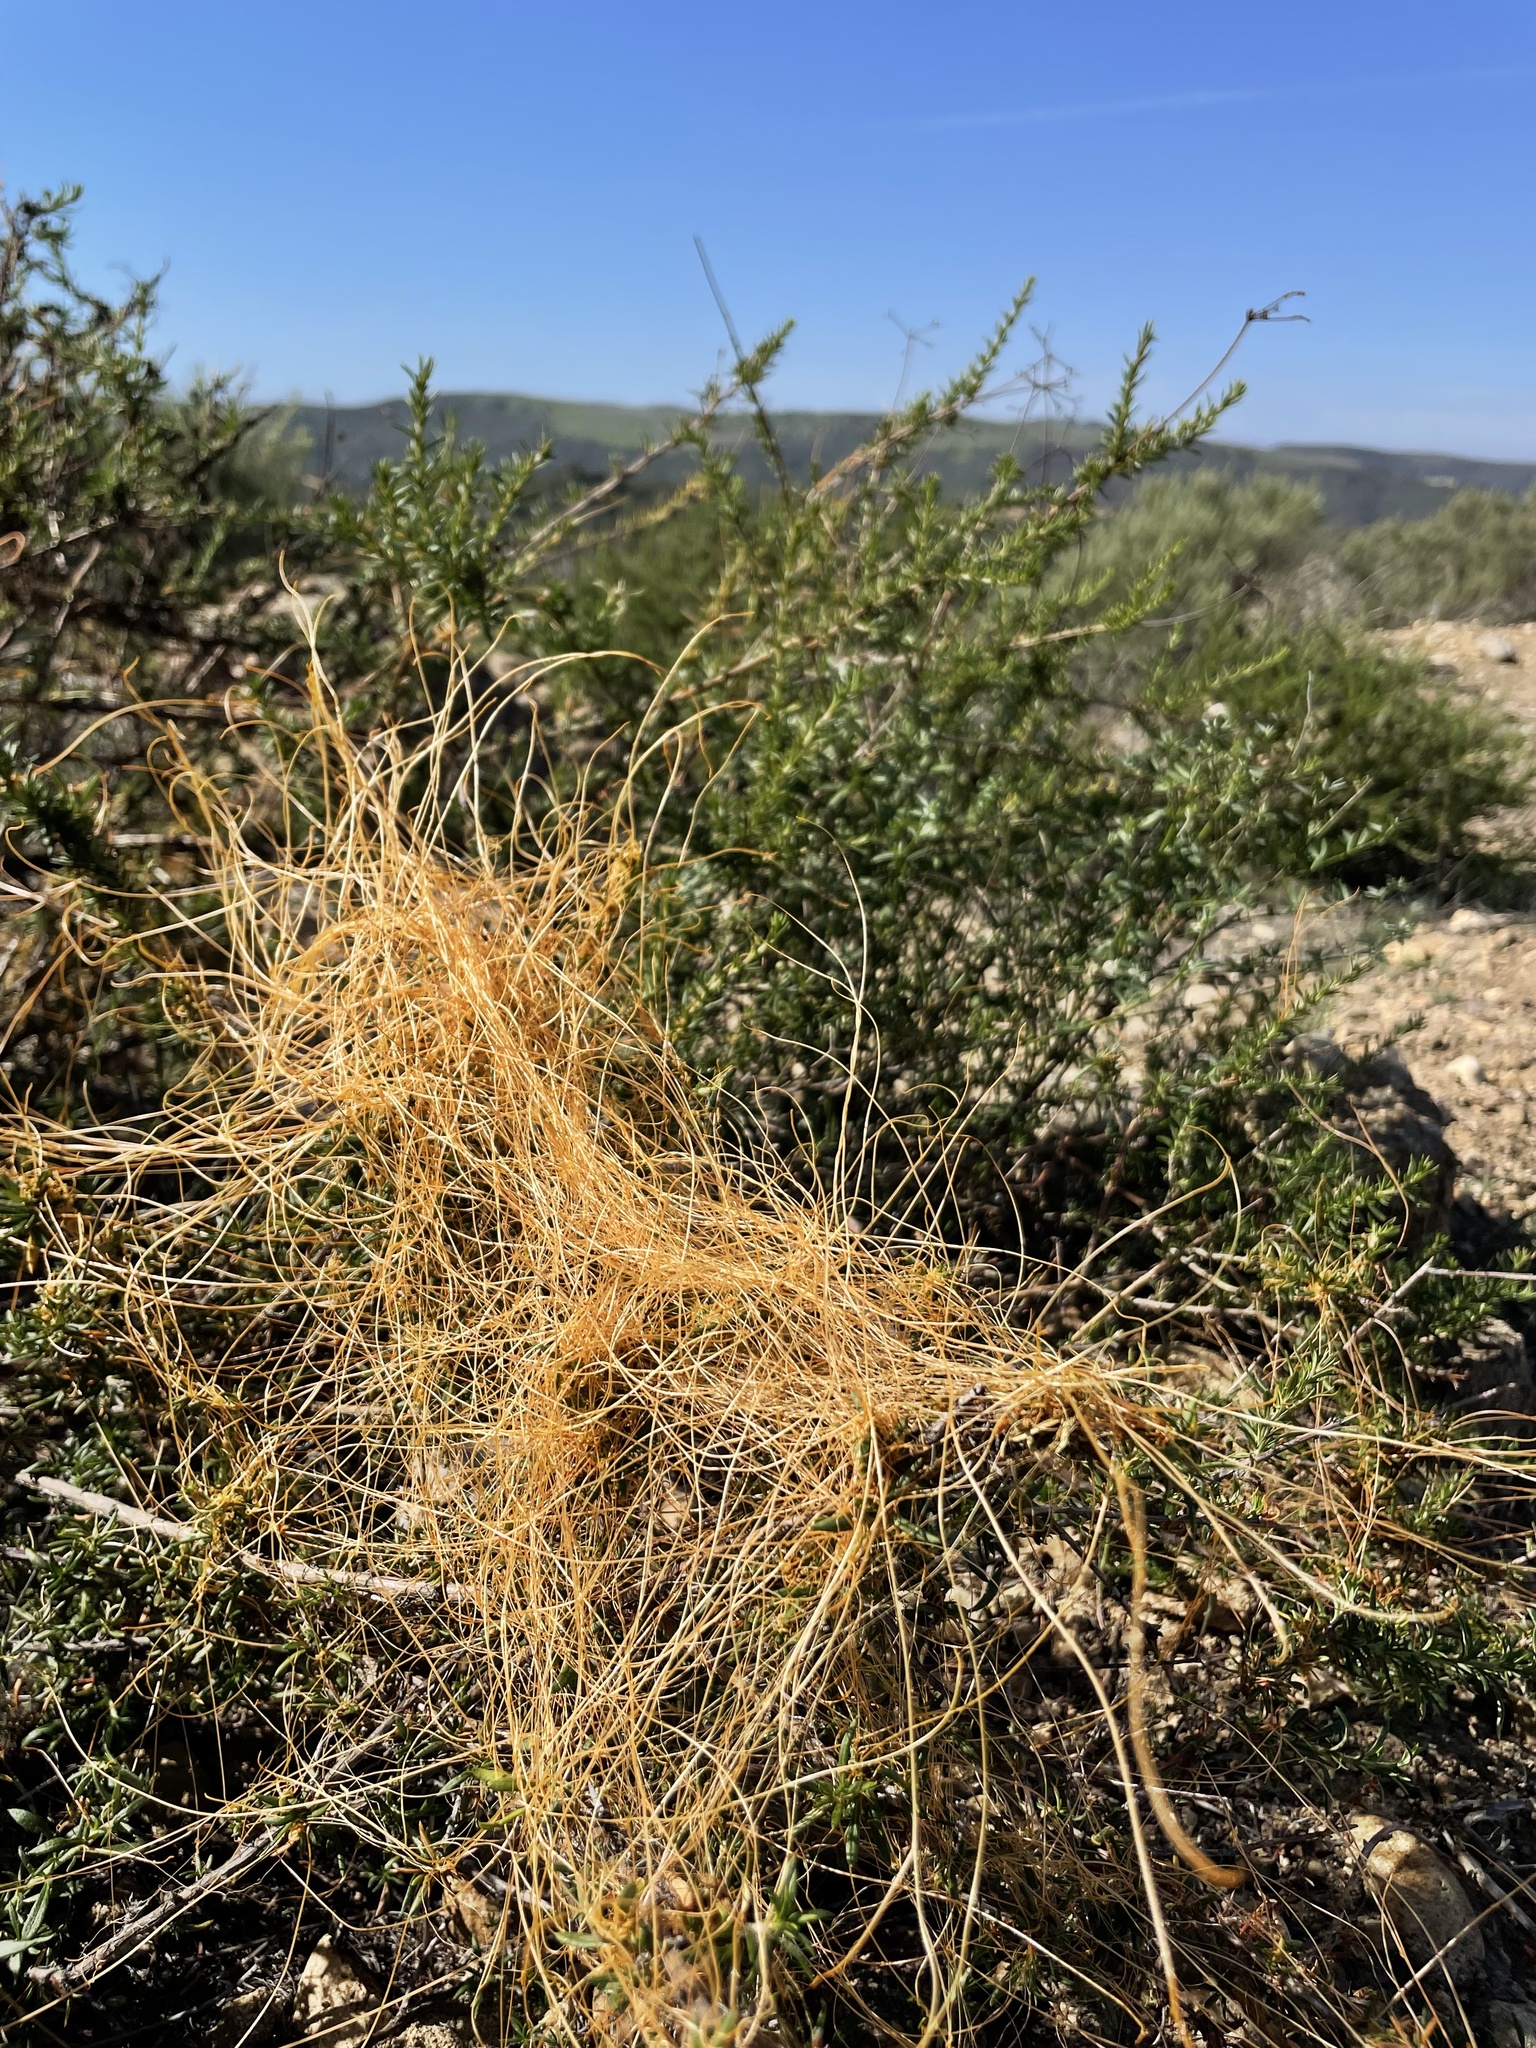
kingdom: Plantae
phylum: Tracheophyta
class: Magnoliopsida
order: Solanales
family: Convolvulaceae
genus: Cuscuta
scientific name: Cuscuta californica
